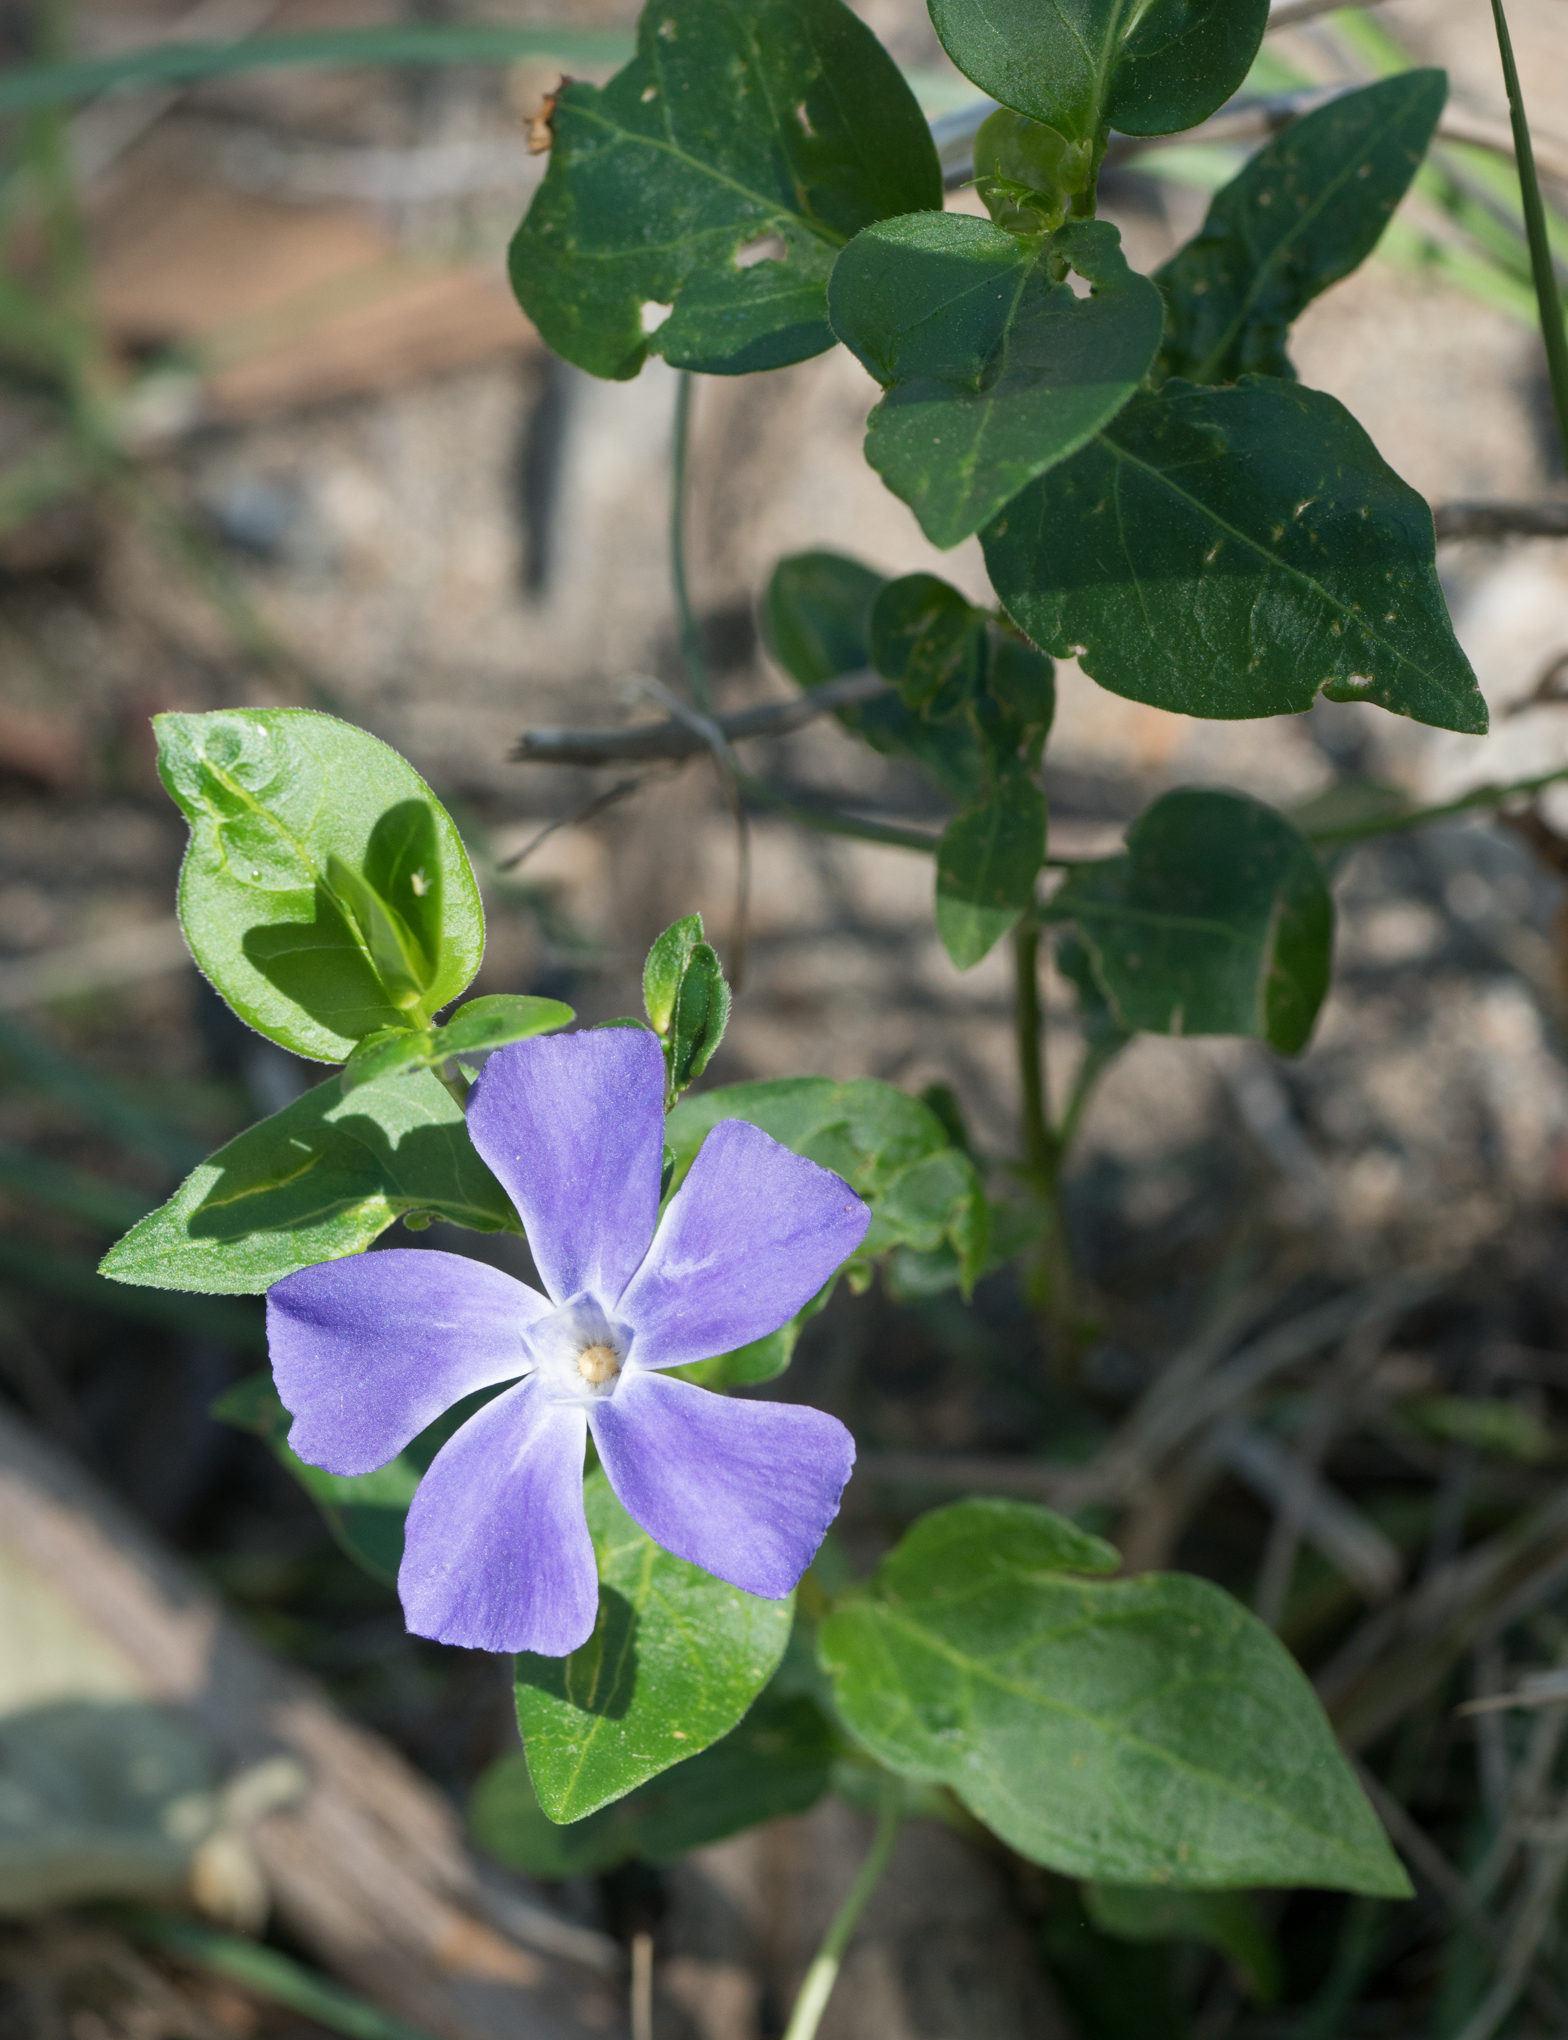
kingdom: Plantae
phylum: Tracheophyta
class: Magnoliopsida
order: Gentianales
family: Apocynaceae
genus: Vinca
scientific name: Vinca major
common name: Greater periwinkle
